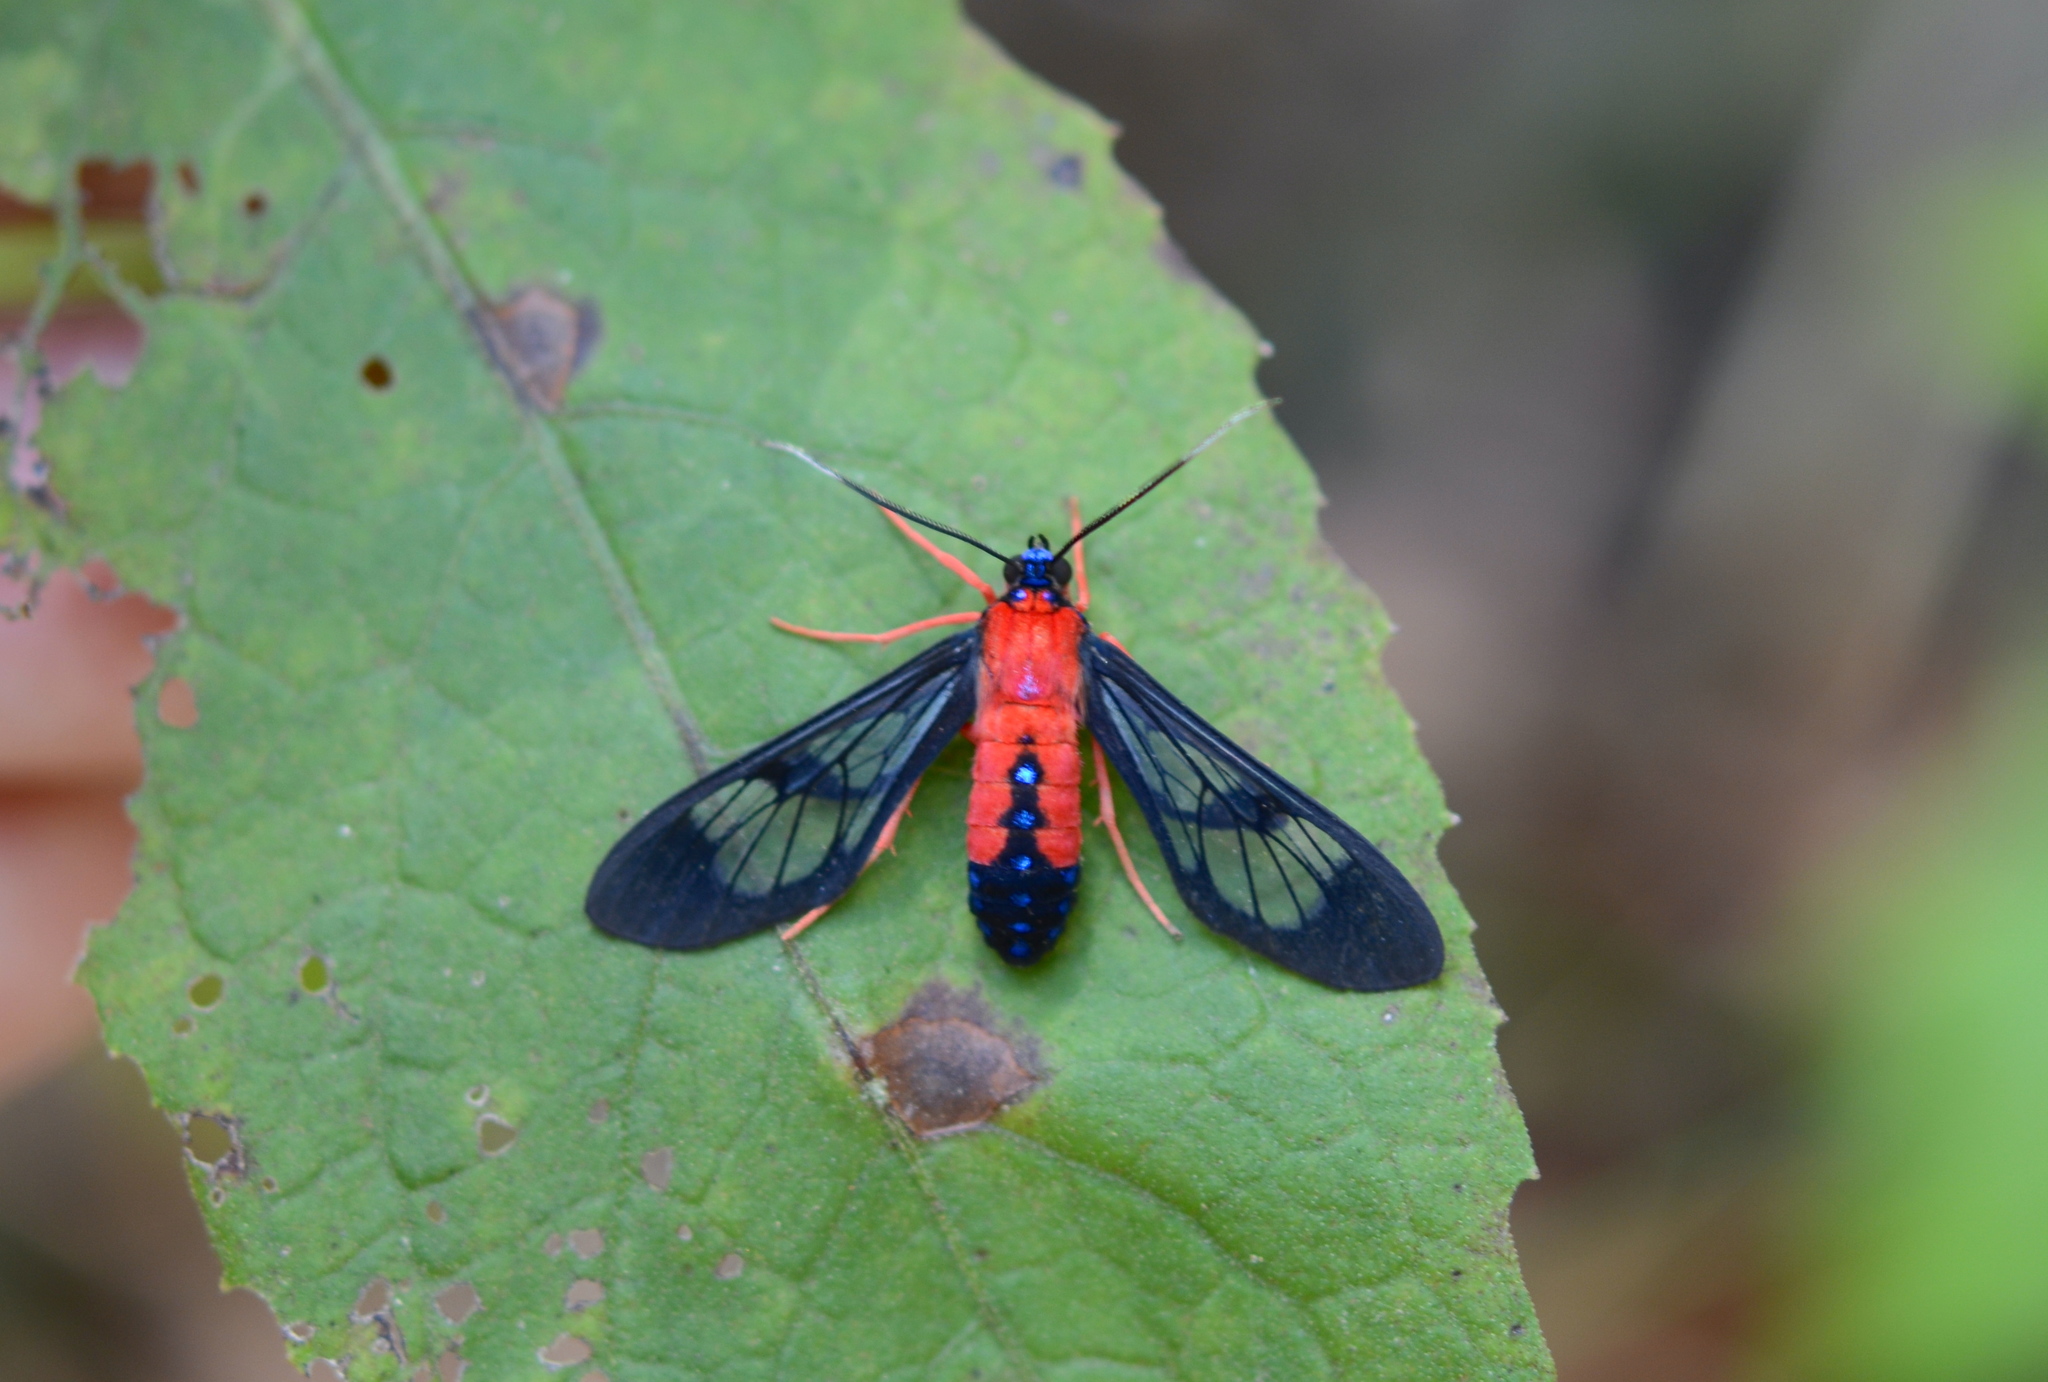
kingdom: Animalia
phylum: Arthropoda
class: Insecta
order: Lepidoptera
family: Erebidae
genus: Cosmosoma
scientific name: Cosmosoma myrodora
